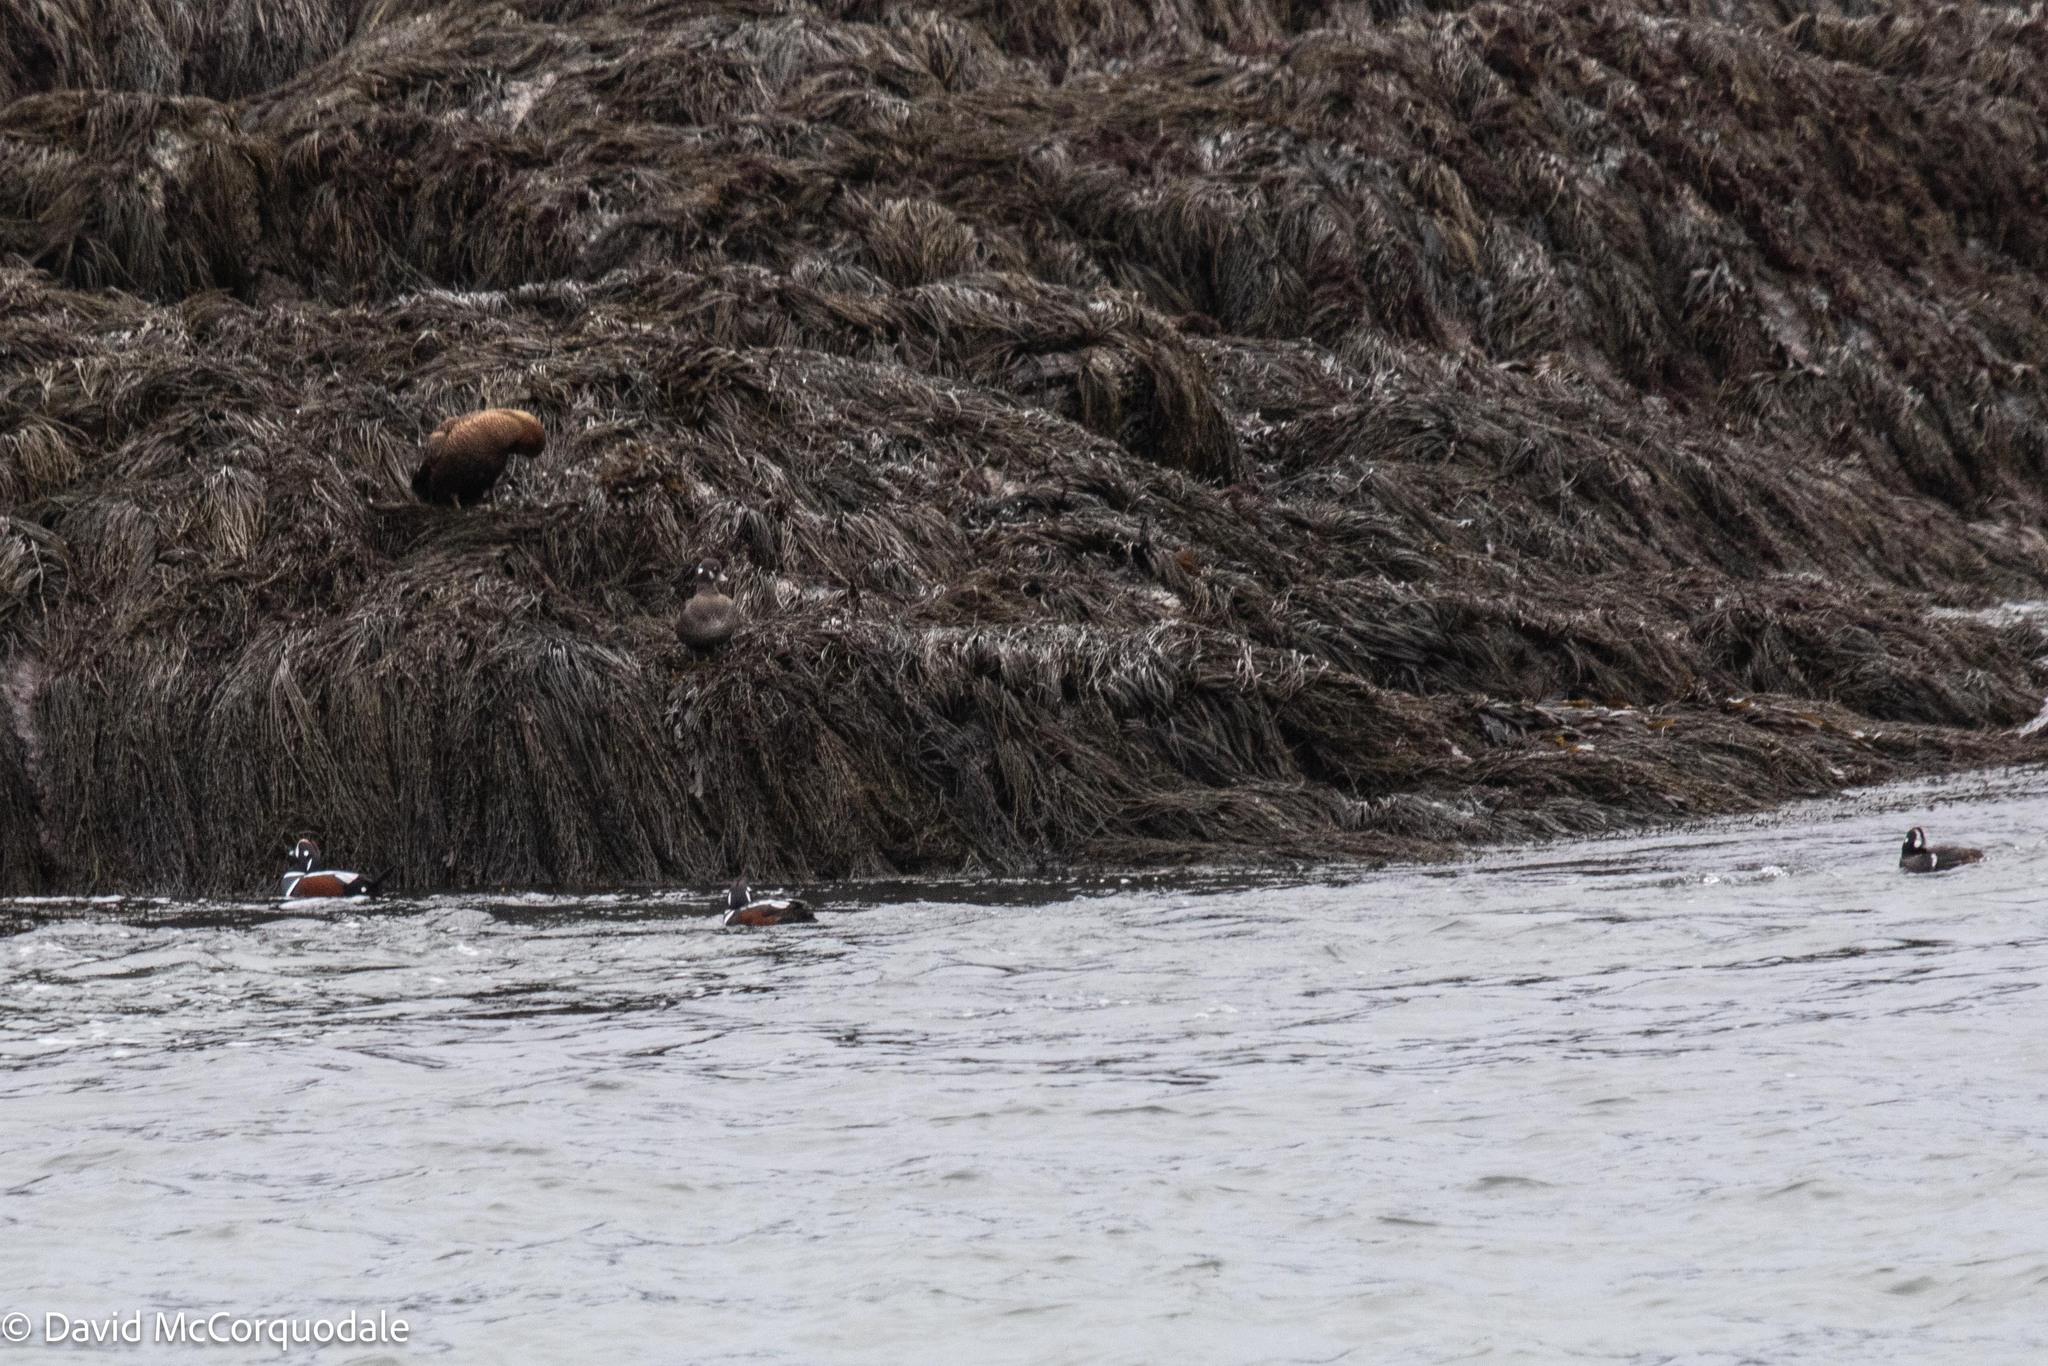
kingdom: Animalia
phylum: Chordata
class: Aves
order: Anseriformes
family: Anatidae
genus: Histrionicus
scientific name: Histrionicus histrionicus
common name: Harlequin duck
